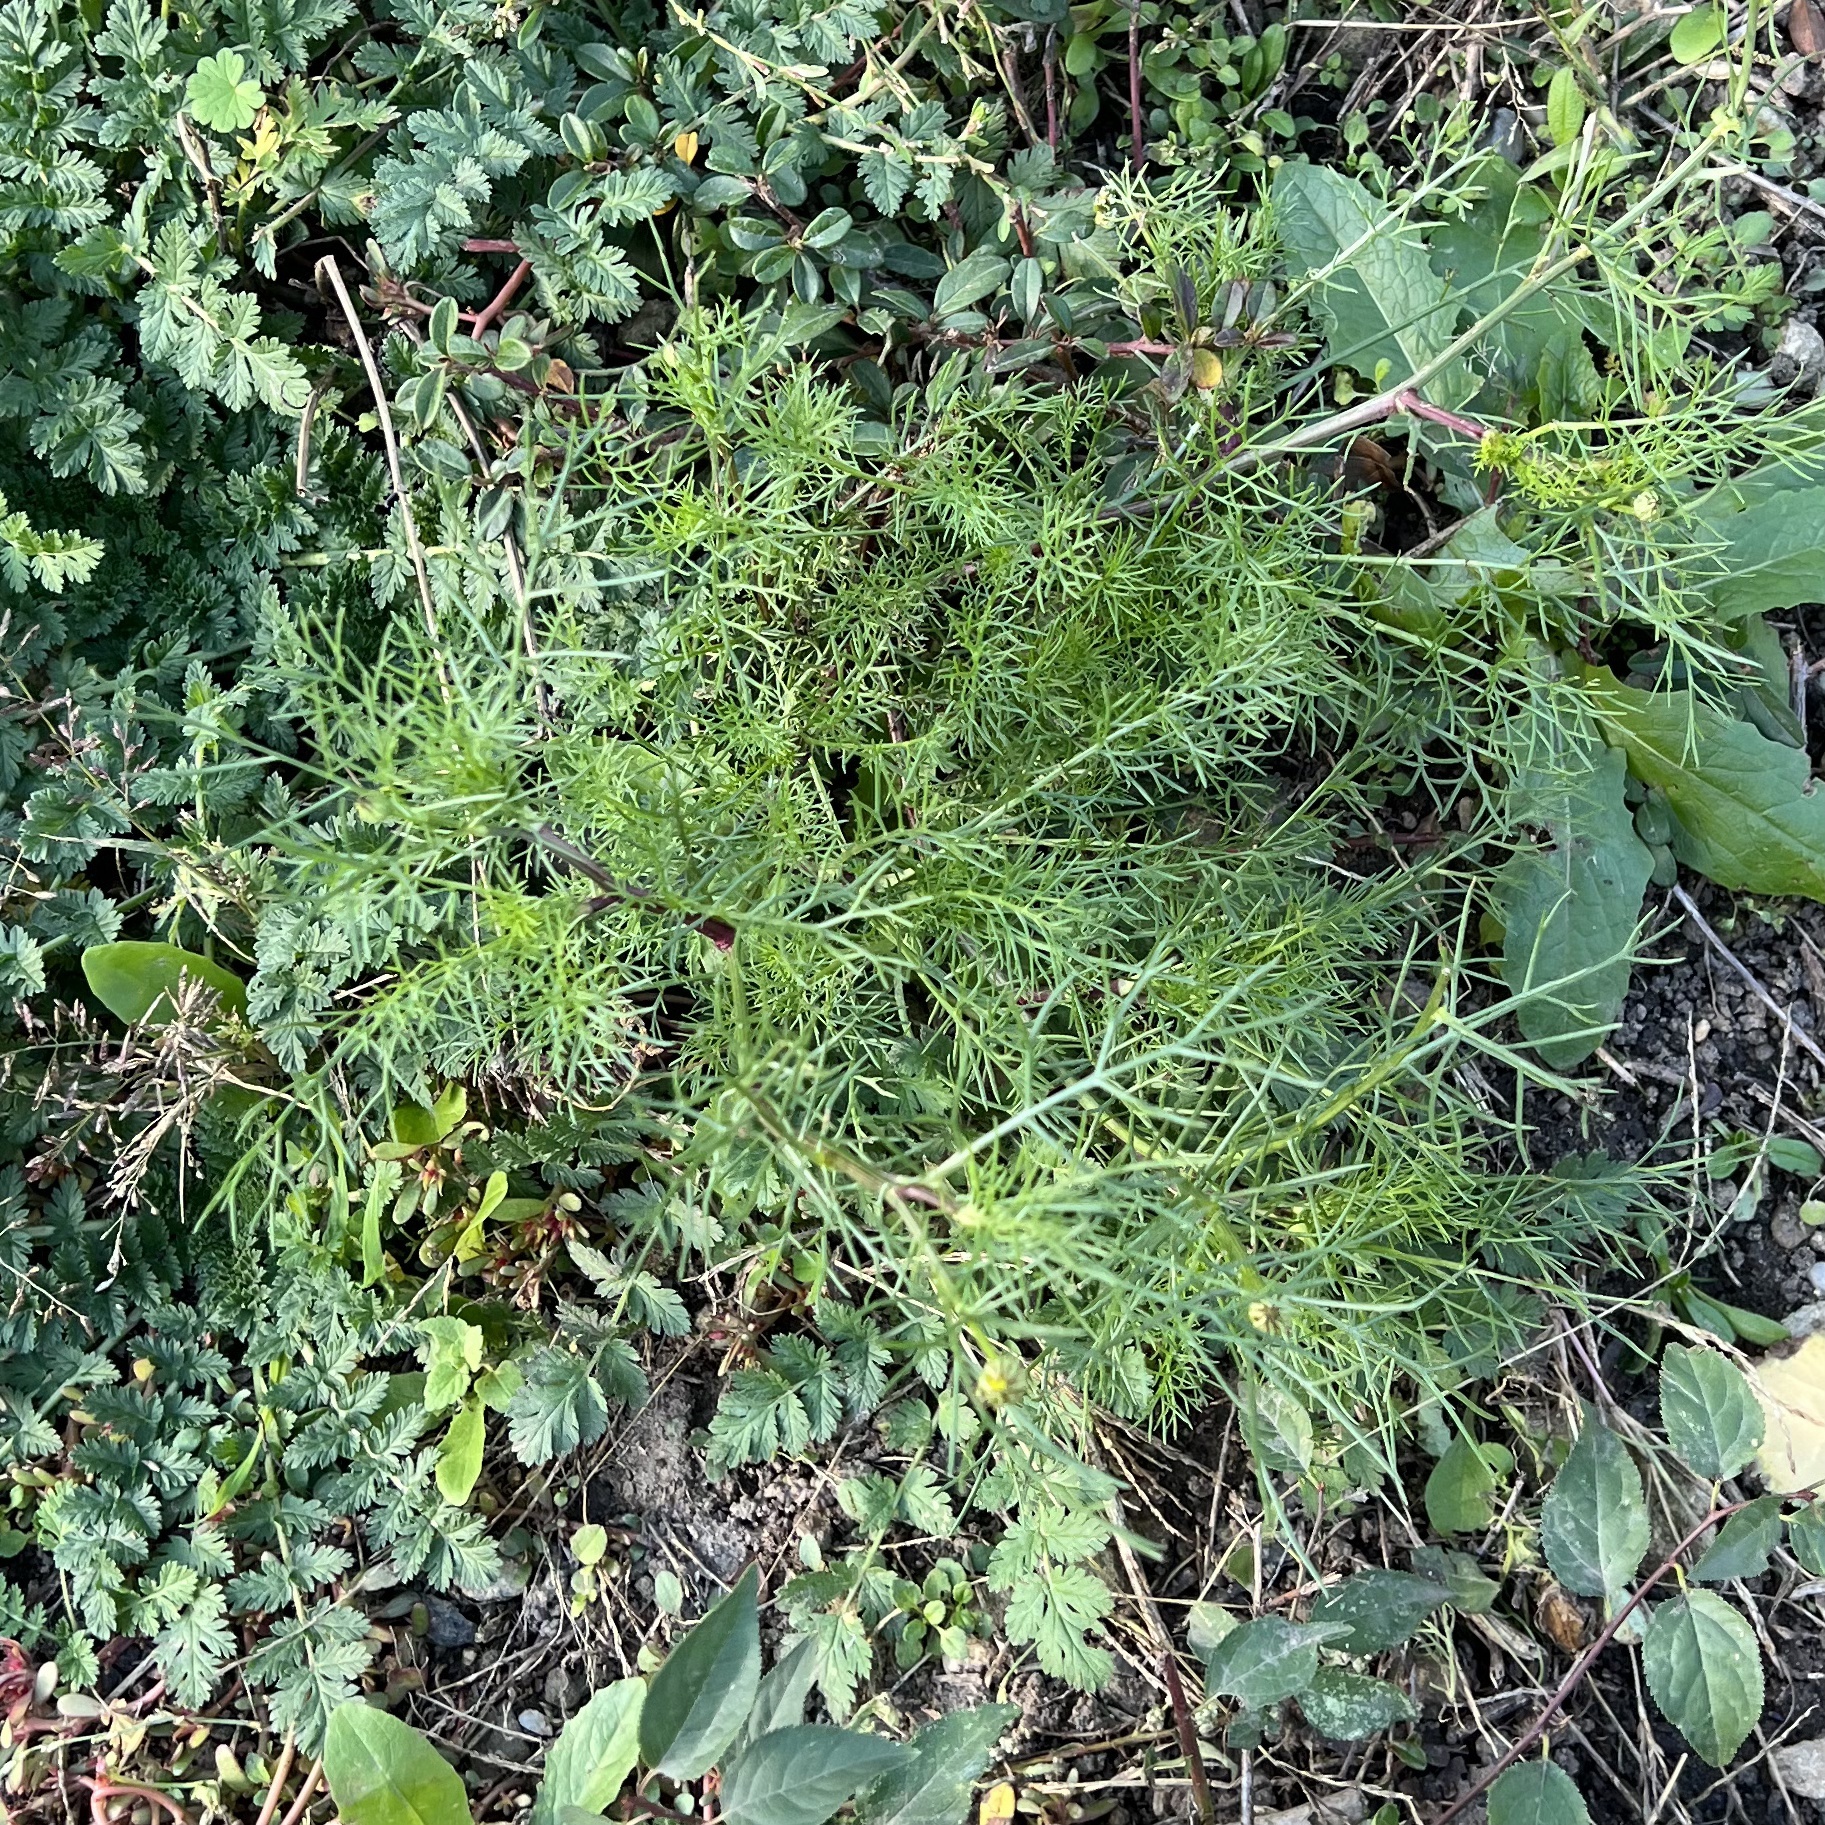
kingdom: Plantae
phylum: Tracheophyta
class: Magnoliopsida
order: Asterales
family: Asteraceae
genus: Tripleurospermum
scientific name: Tripleurospermum inodorum
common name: Scentless mayweed
